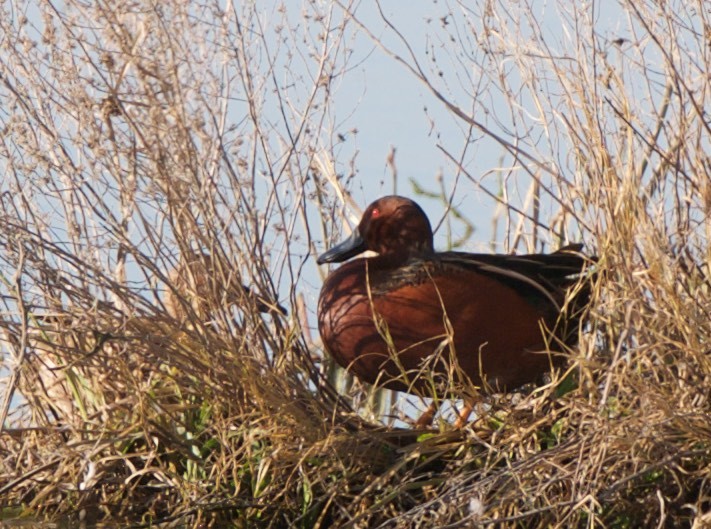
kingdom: Animalia
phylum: Chordata
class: Aves
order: Anseriformes
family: Anatidae
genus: Spatula
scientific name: Spatula cyanoptera
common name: Cinnamon teal
